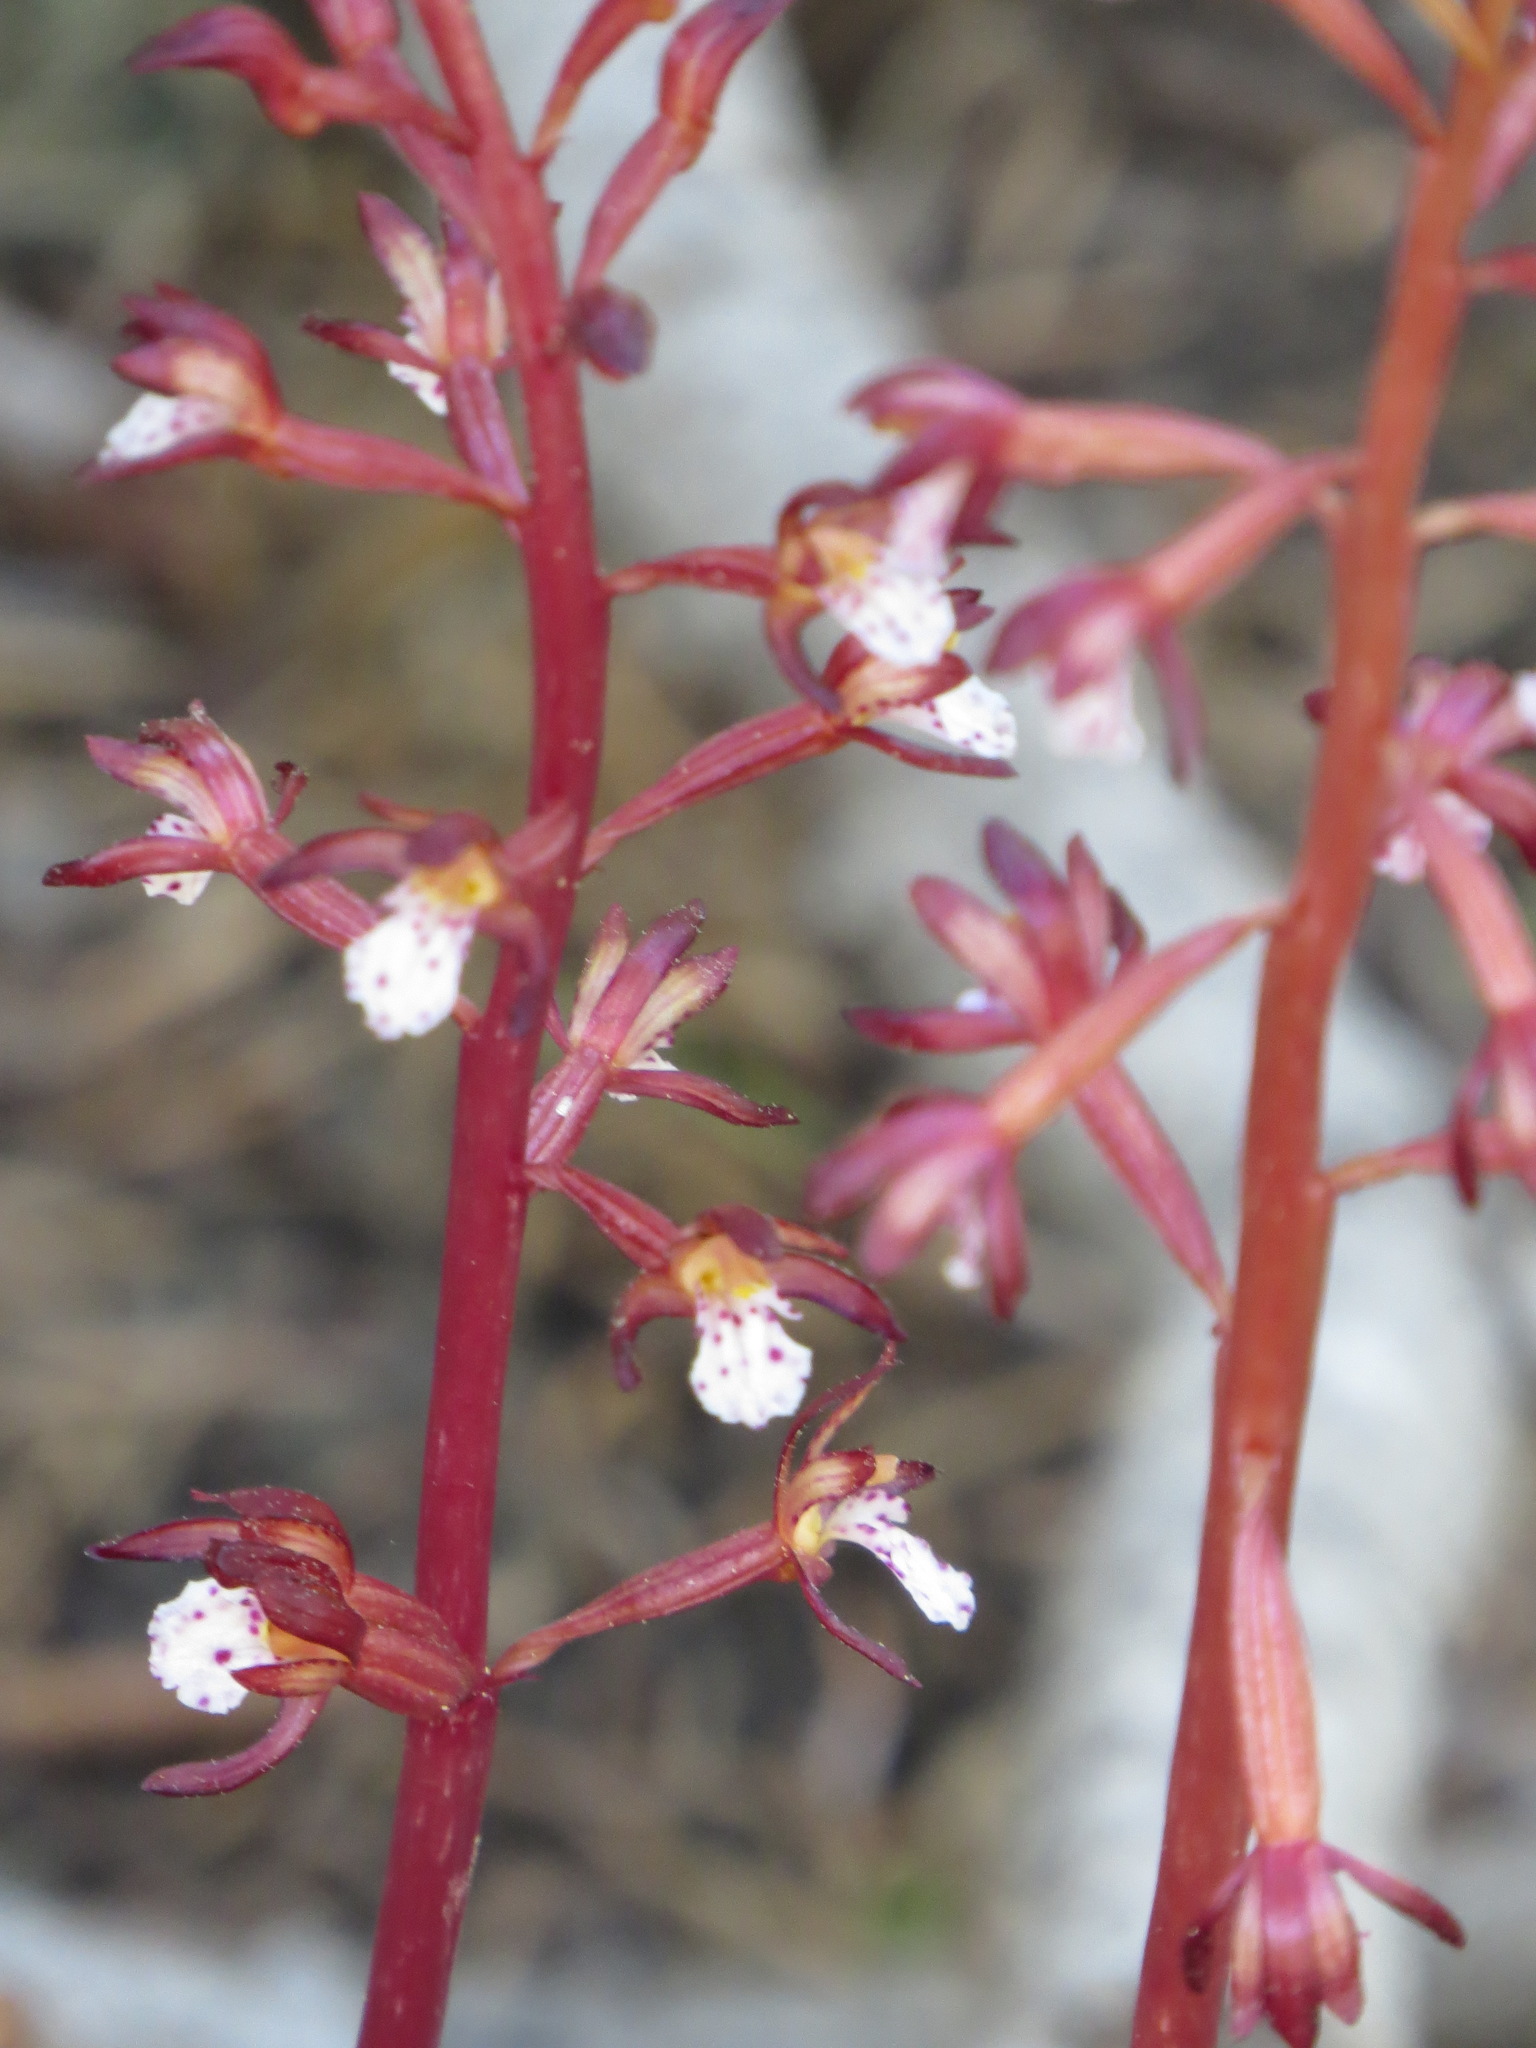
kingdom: Plantae
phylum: Tracheophyta
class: Liliopsida
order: Asparagales
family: Orchidaceae
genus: Corallorhiza
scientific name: Corallorhiza maculata
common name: Spotted coralroot
